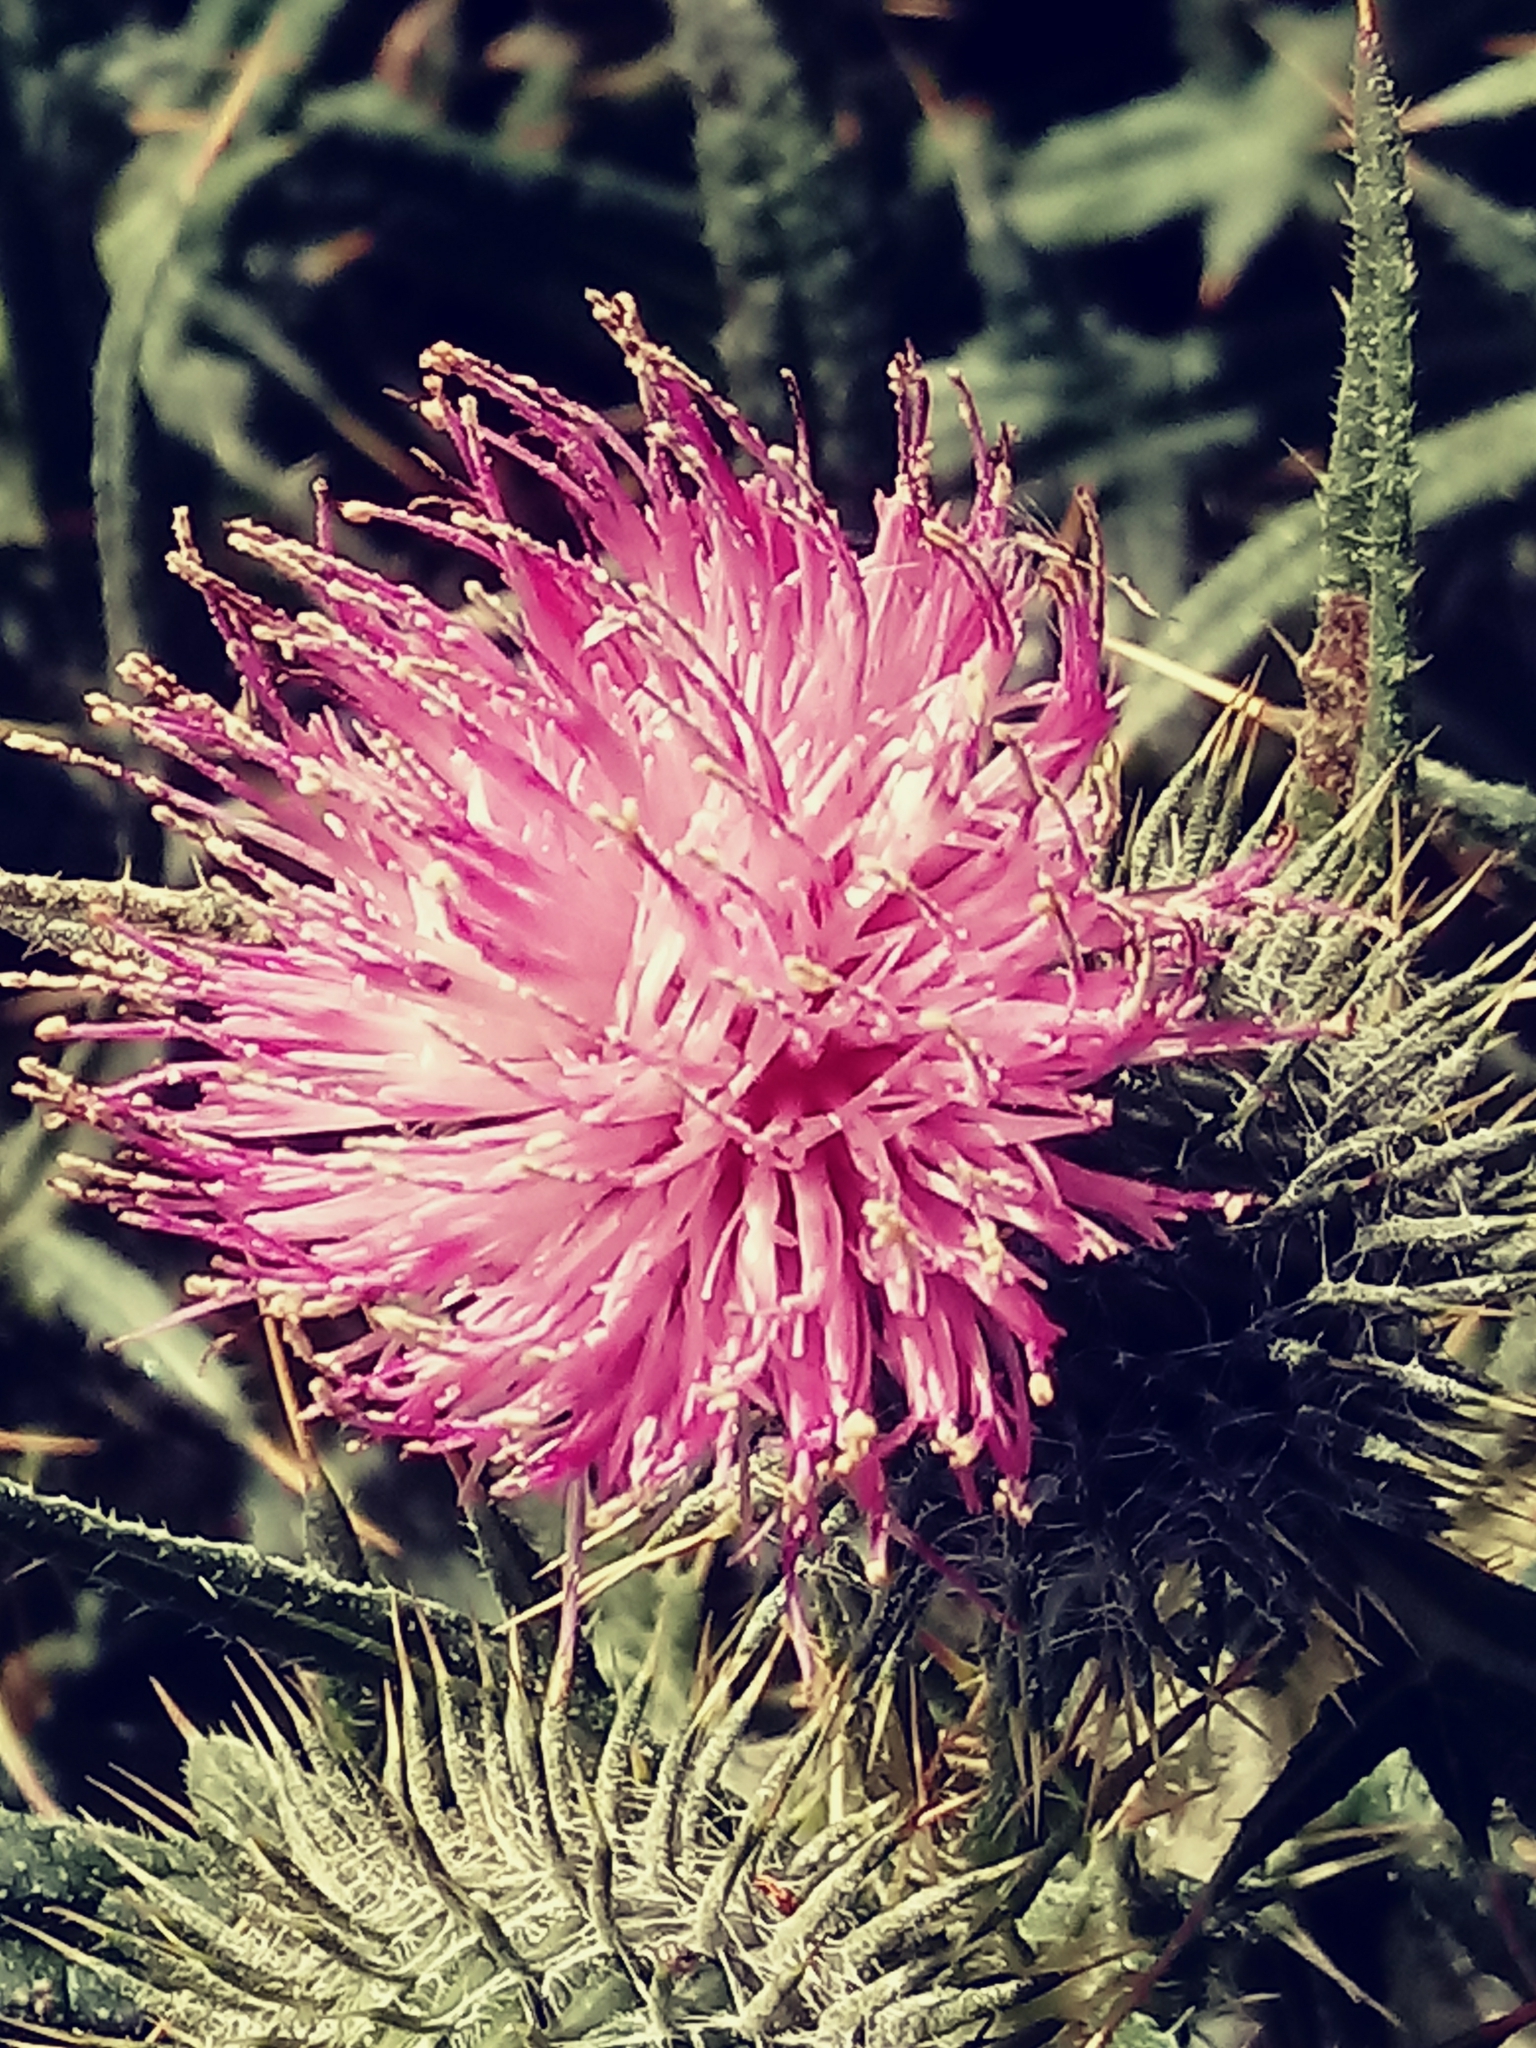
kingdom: Plantae
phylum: Tracheophyta
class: Magnoliopsida
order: Asterales
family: Asteraceae
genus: Cirsium
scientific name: Cirsium vulgare
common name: Bull thistle
